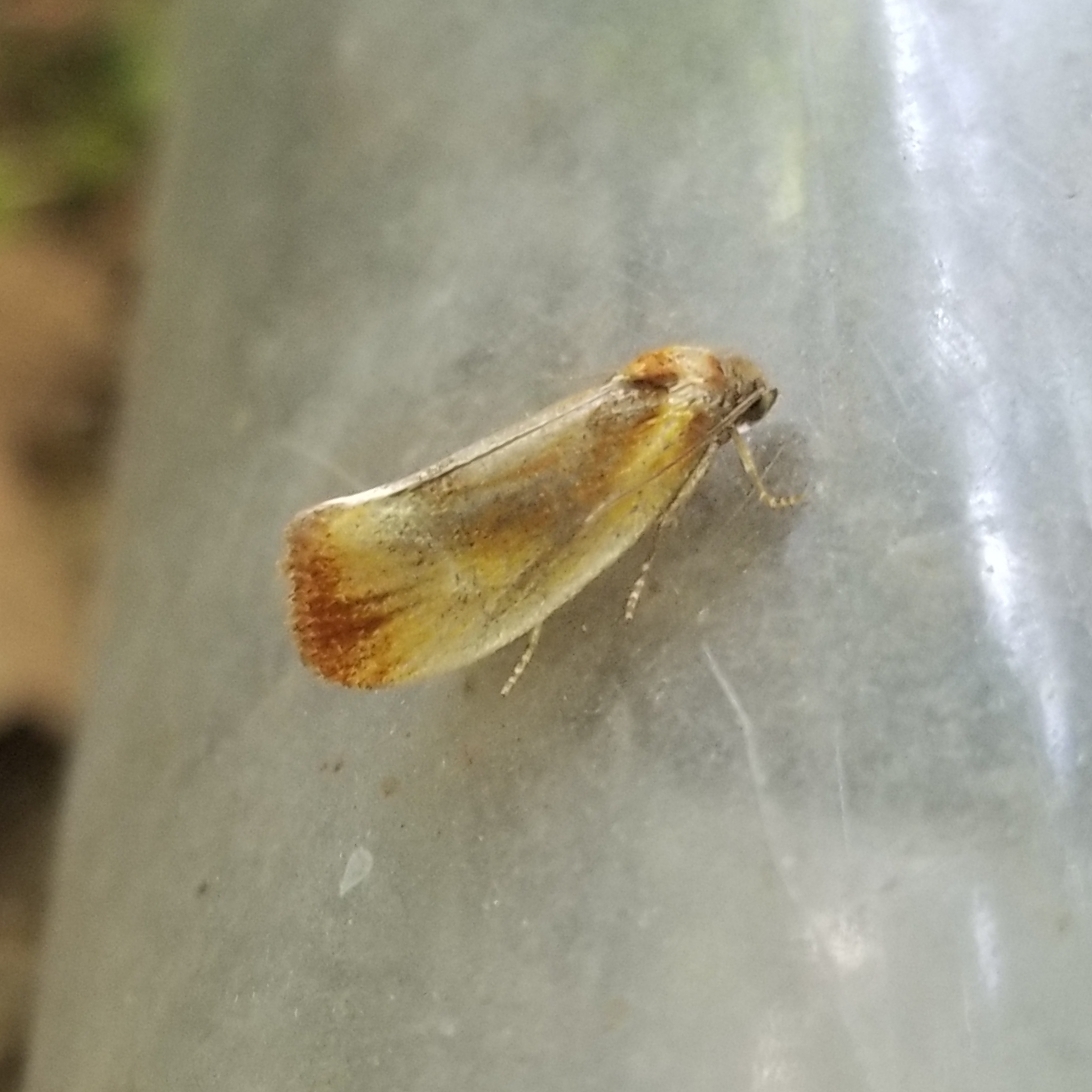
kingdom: Animalia
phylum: Arthropoda
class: Insecta
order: Lepidoptera
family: Tortricidae
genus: Eulia
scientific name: Eulia ministrana
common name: Brassy twist
